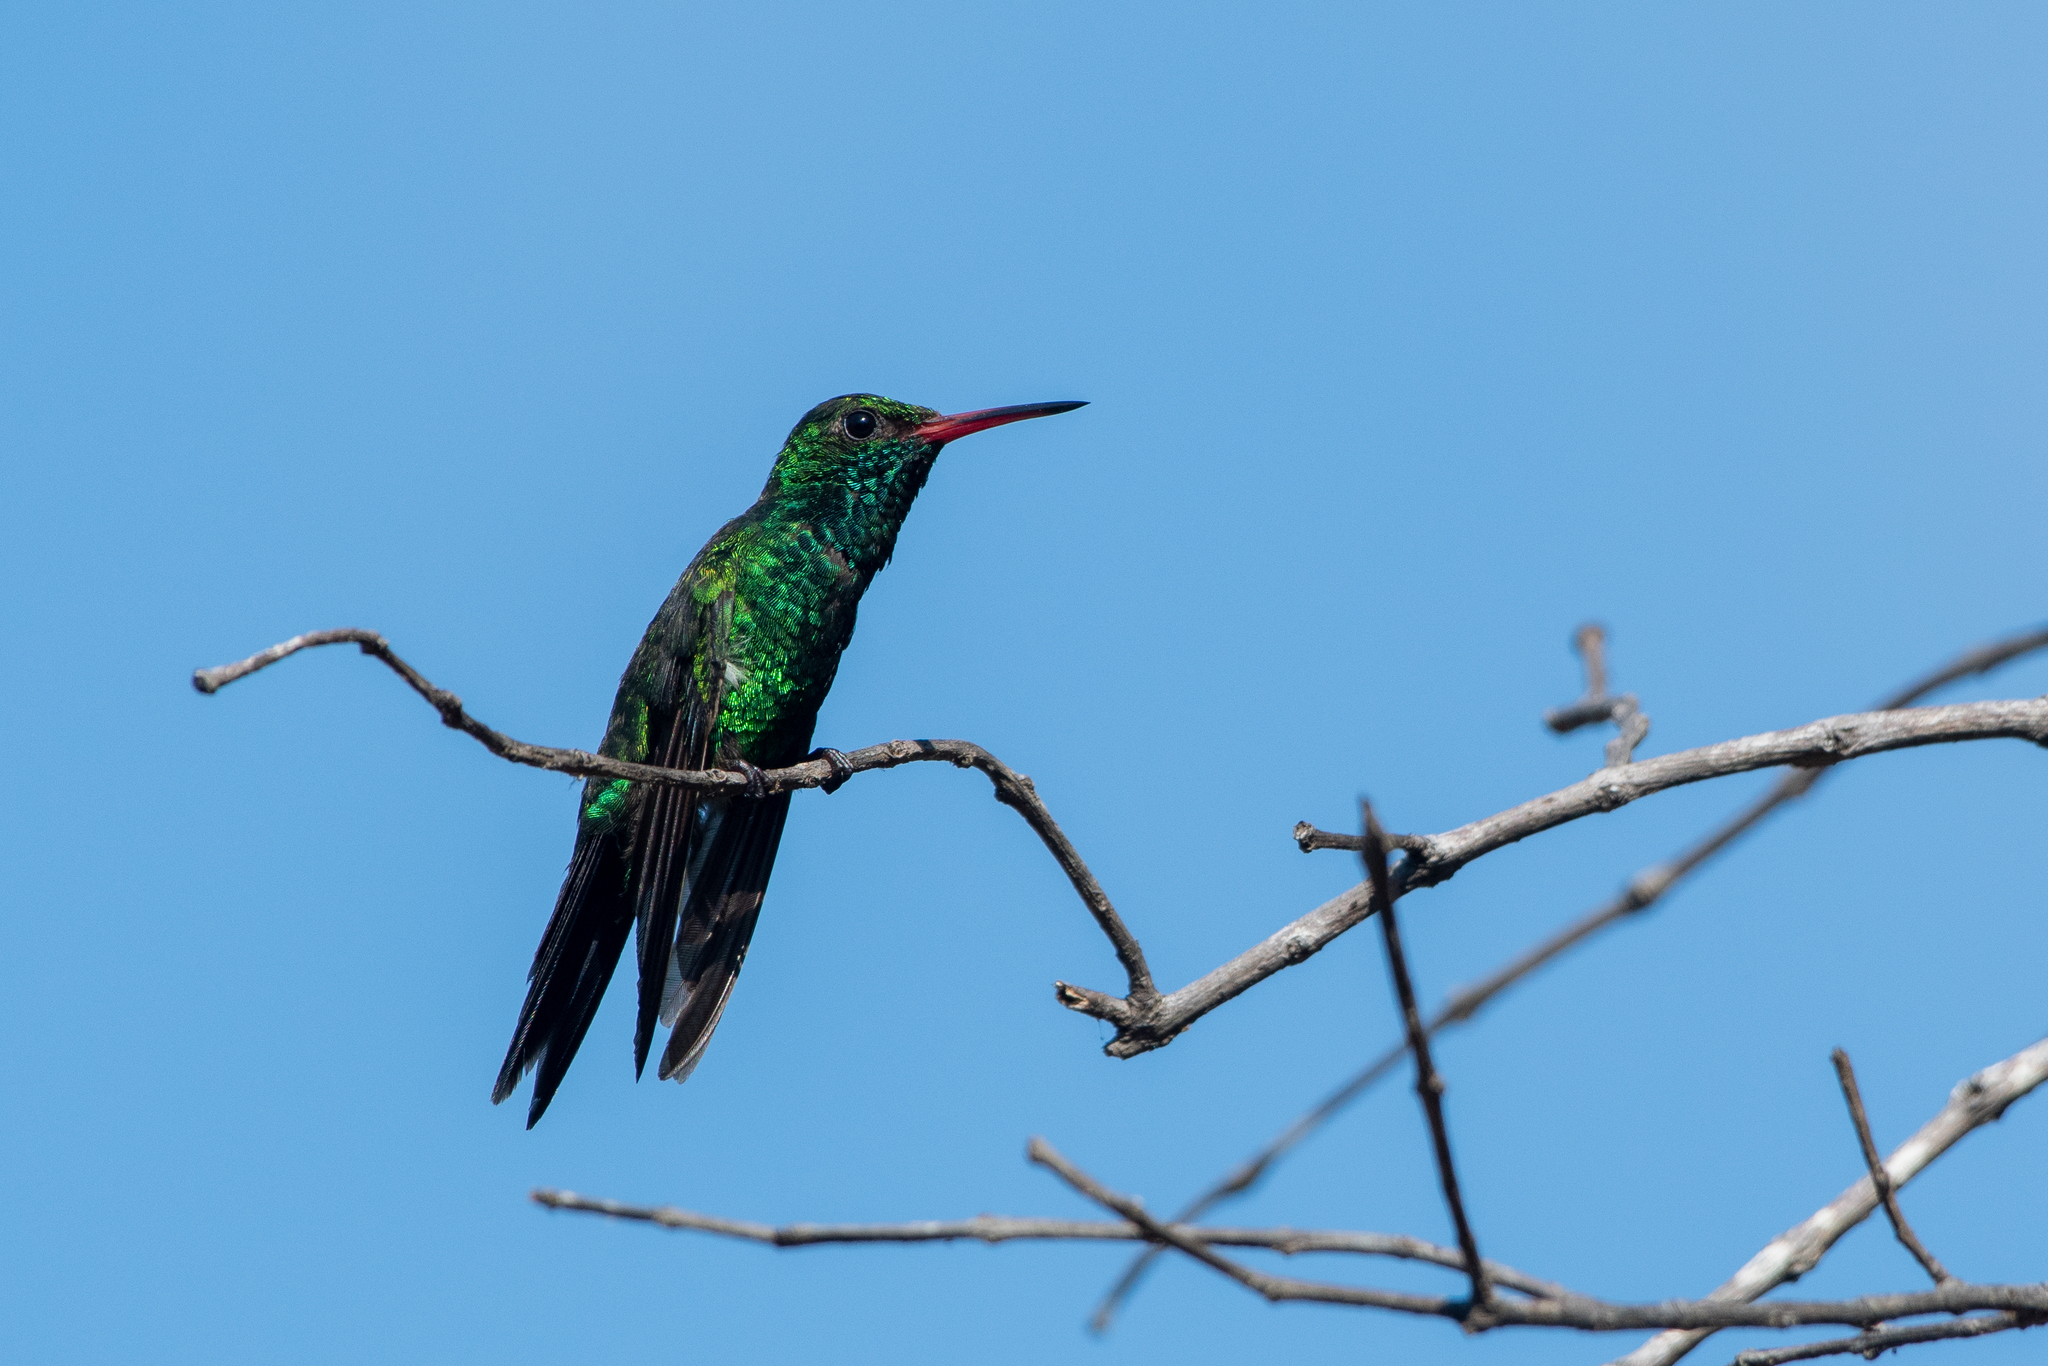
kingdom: Animalia
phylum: Chordata
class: Aves
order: Apodiformes
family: Trochilidae
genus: Cynanthus
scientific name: Cynanthus canivetii
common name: Canivet's emerald
